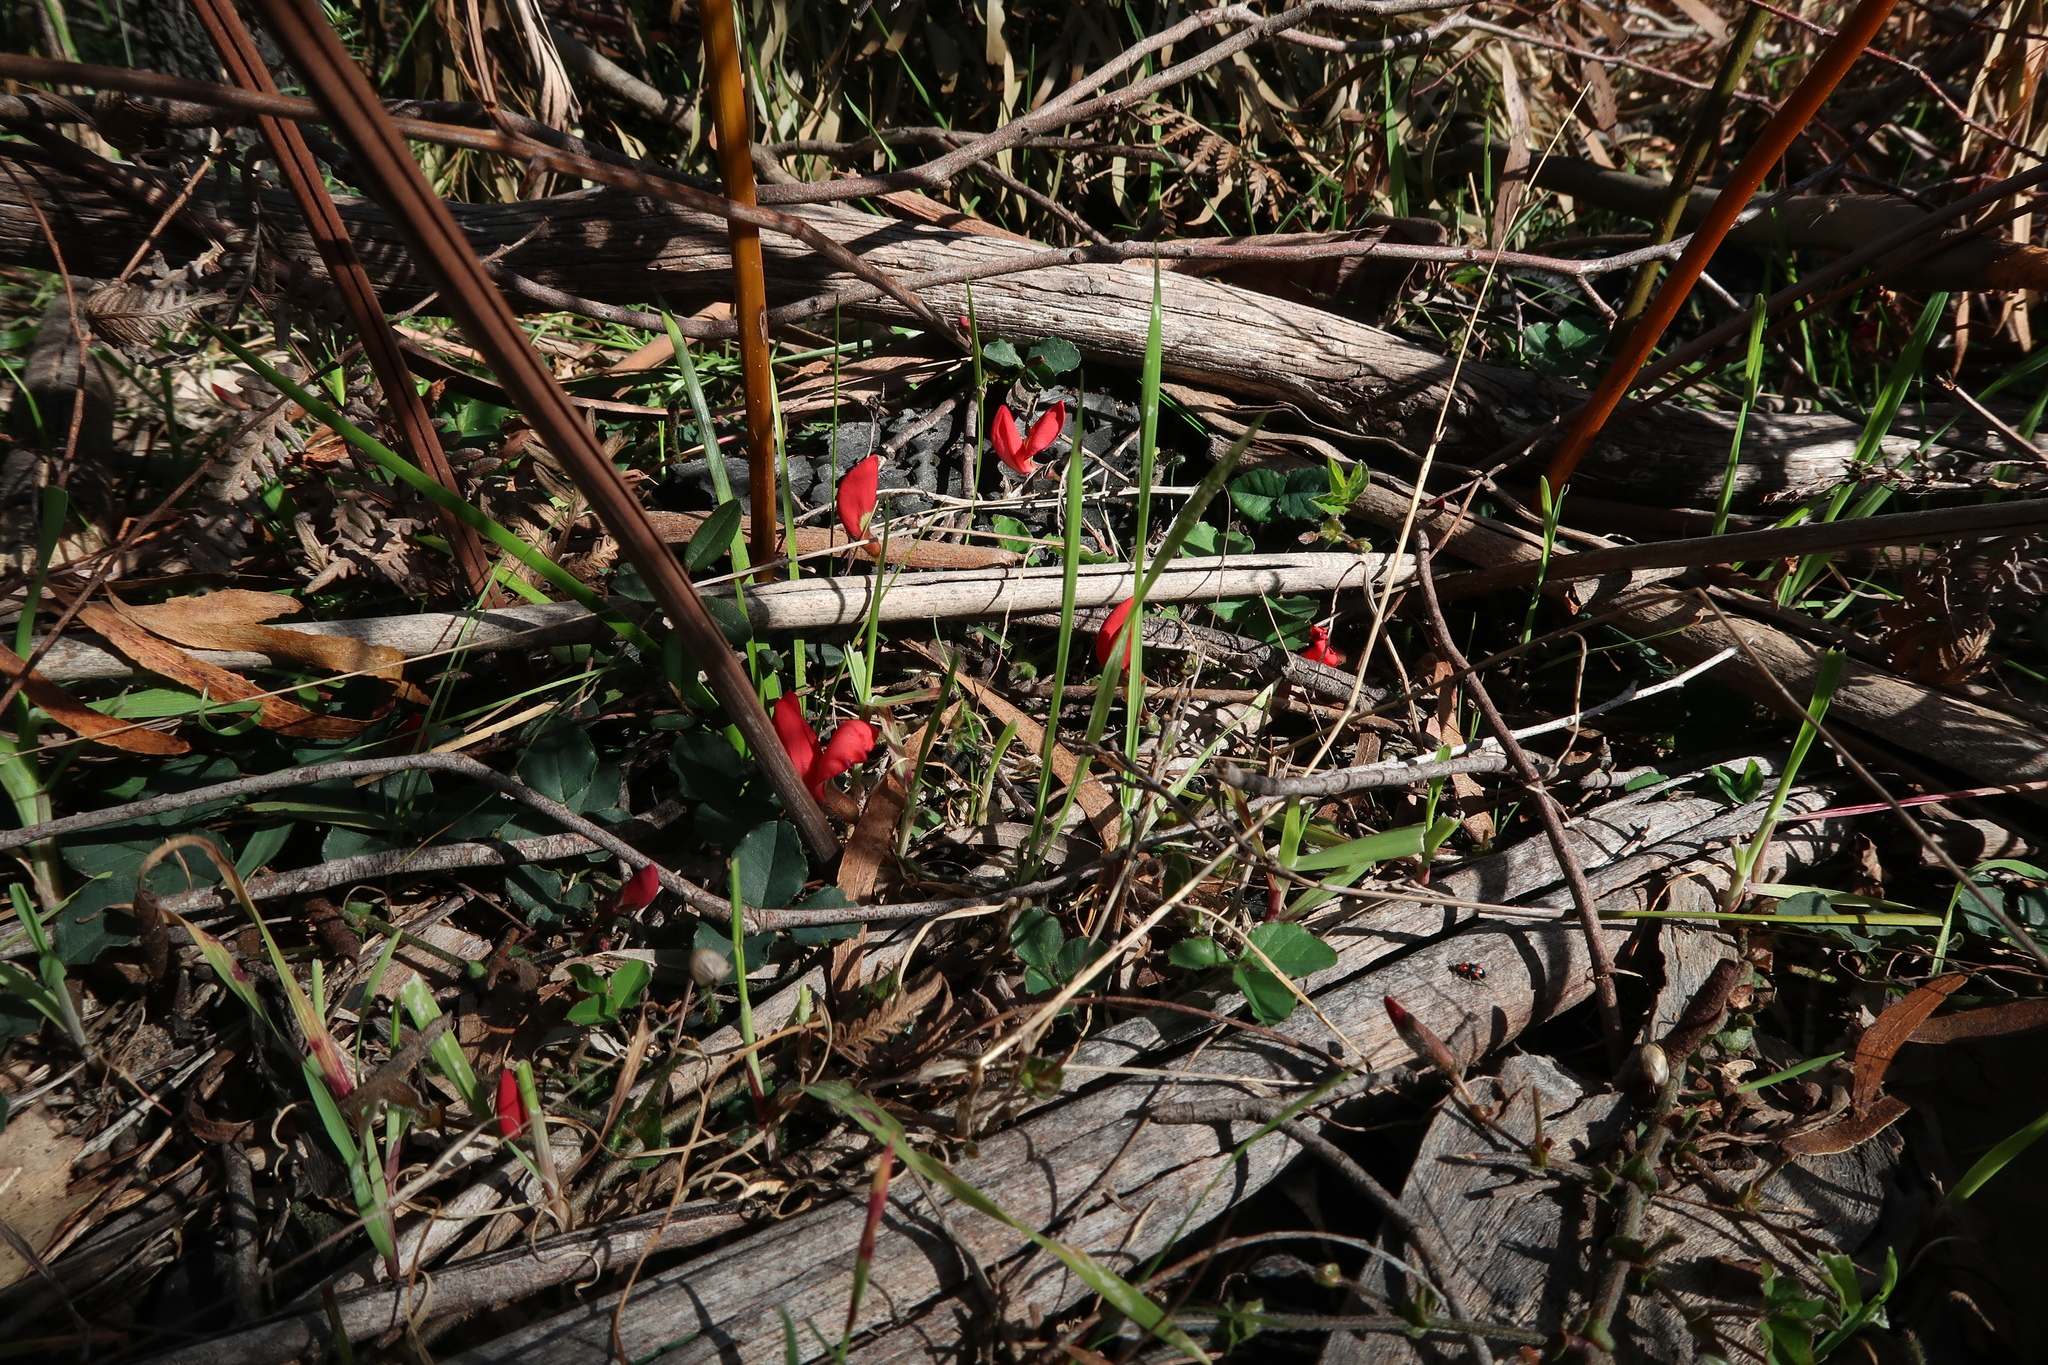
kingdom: Plantae
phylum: Tracheophyta
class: Magnoliopsida
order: Fabales
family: Fabaceae
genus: Kennedia
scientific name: Kennedia prostrata
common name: Running-postman
